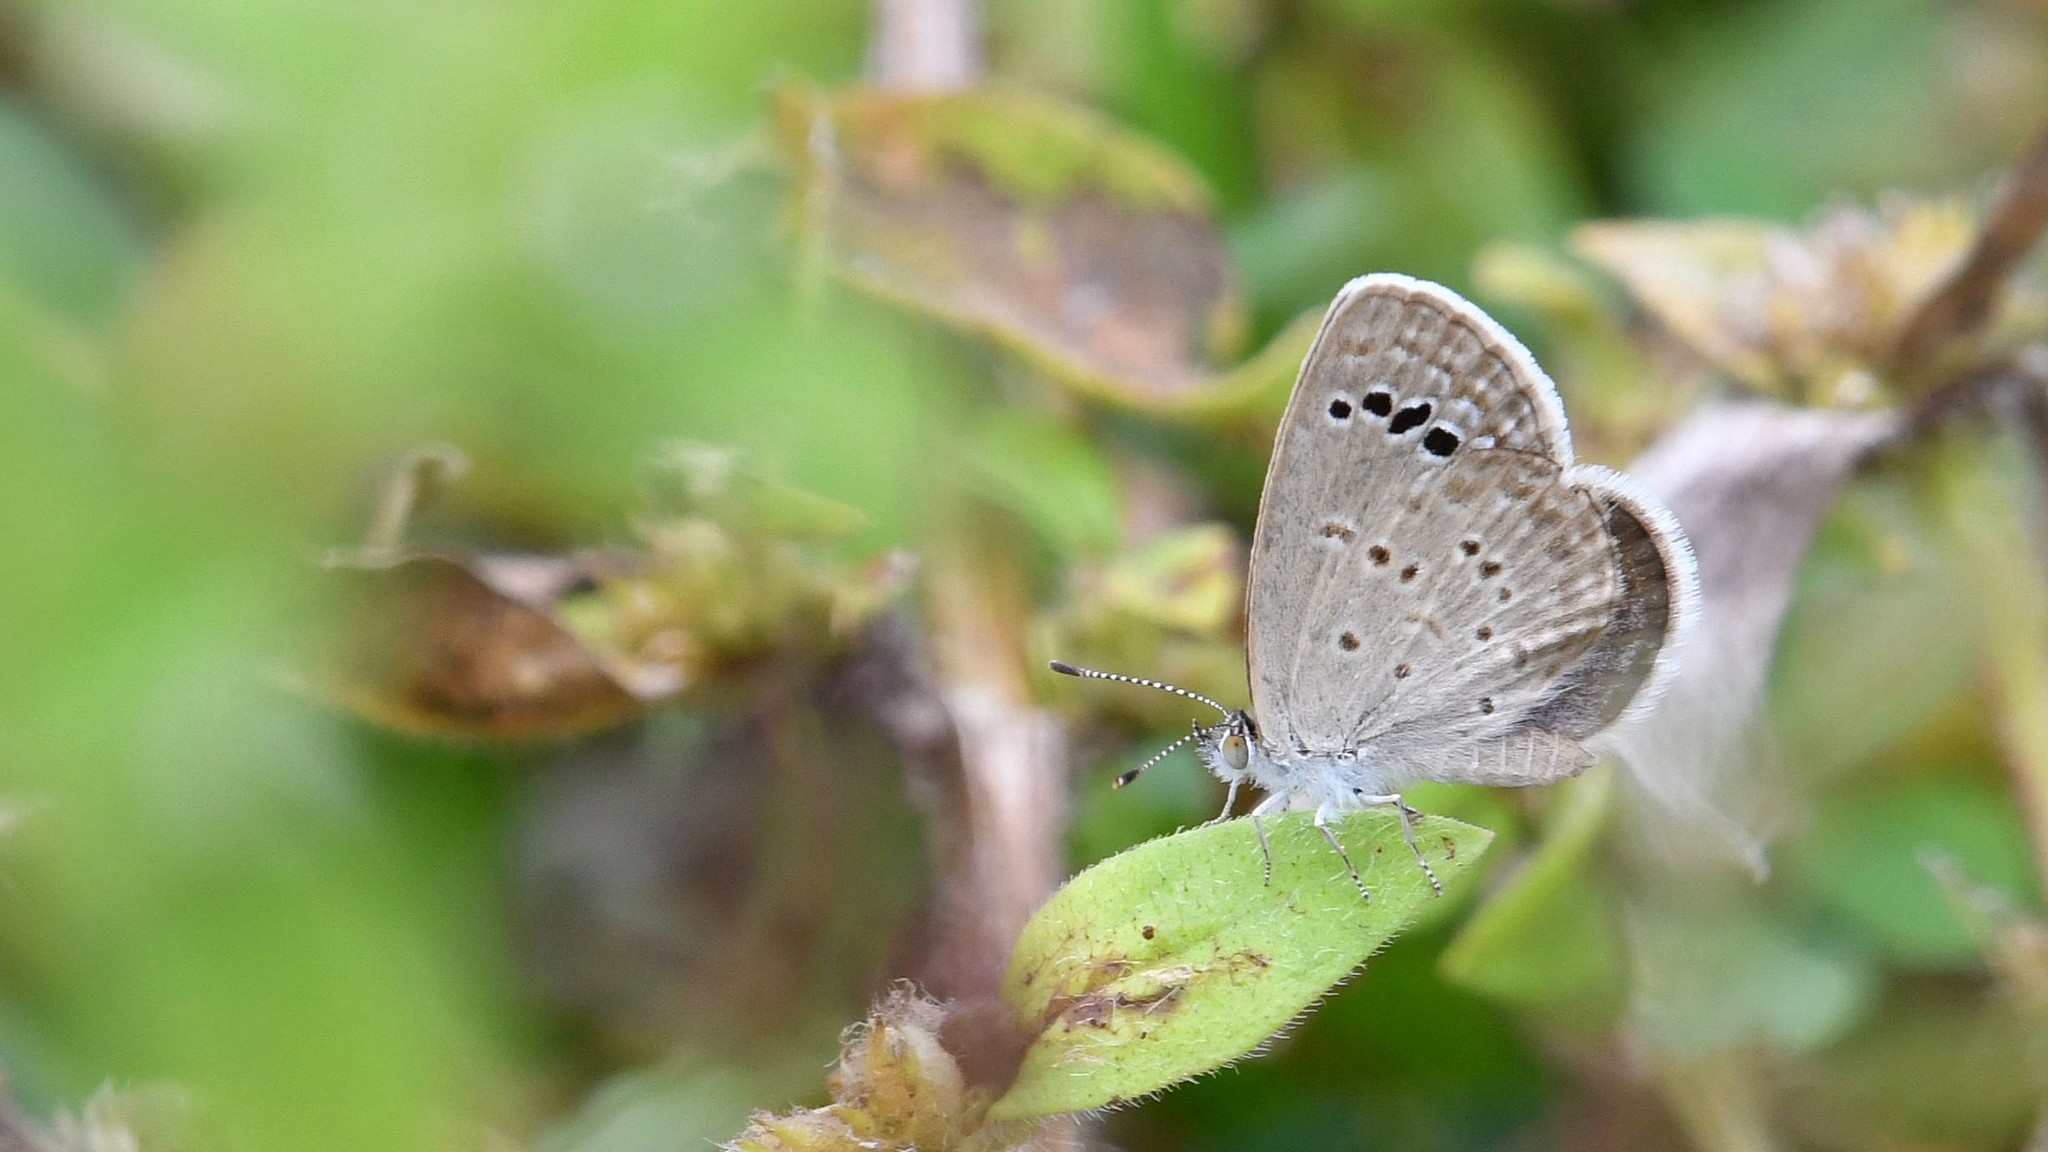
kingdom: Animalia
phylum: Arthropoda
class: Insecta
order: Lepidoptera
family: Lycaenidae
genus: Zizina
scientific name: Zizina otis
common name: Lesser grass blue
